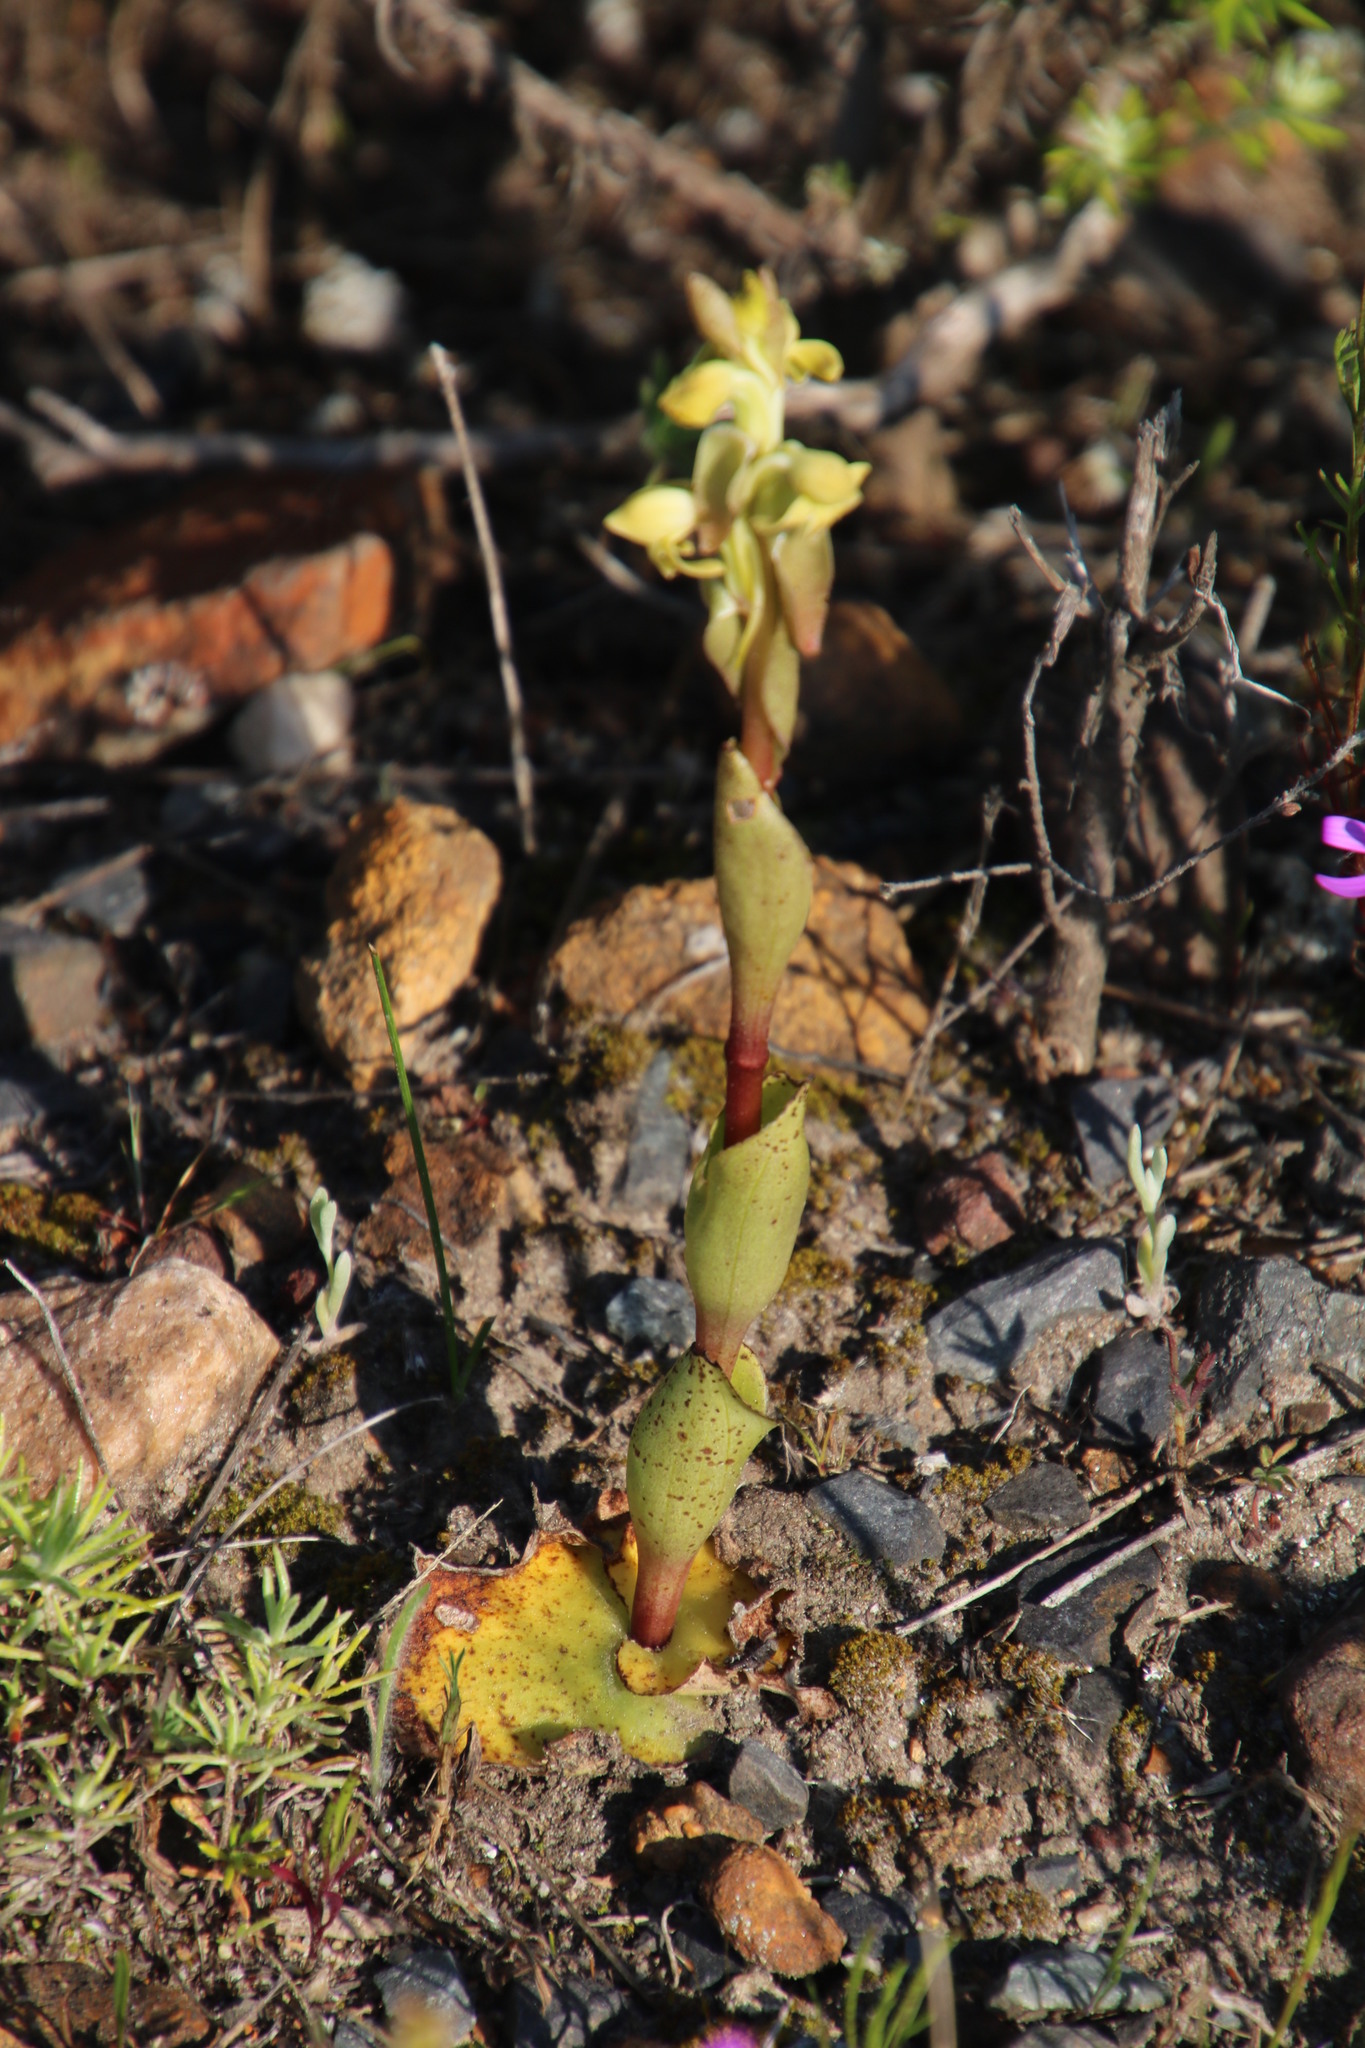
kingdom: Plantae
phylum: Tracheophyta
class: Liliopsida
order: Asparagales
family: Orchidaceae
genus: Satyrium
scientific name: Satyrium bicorne
